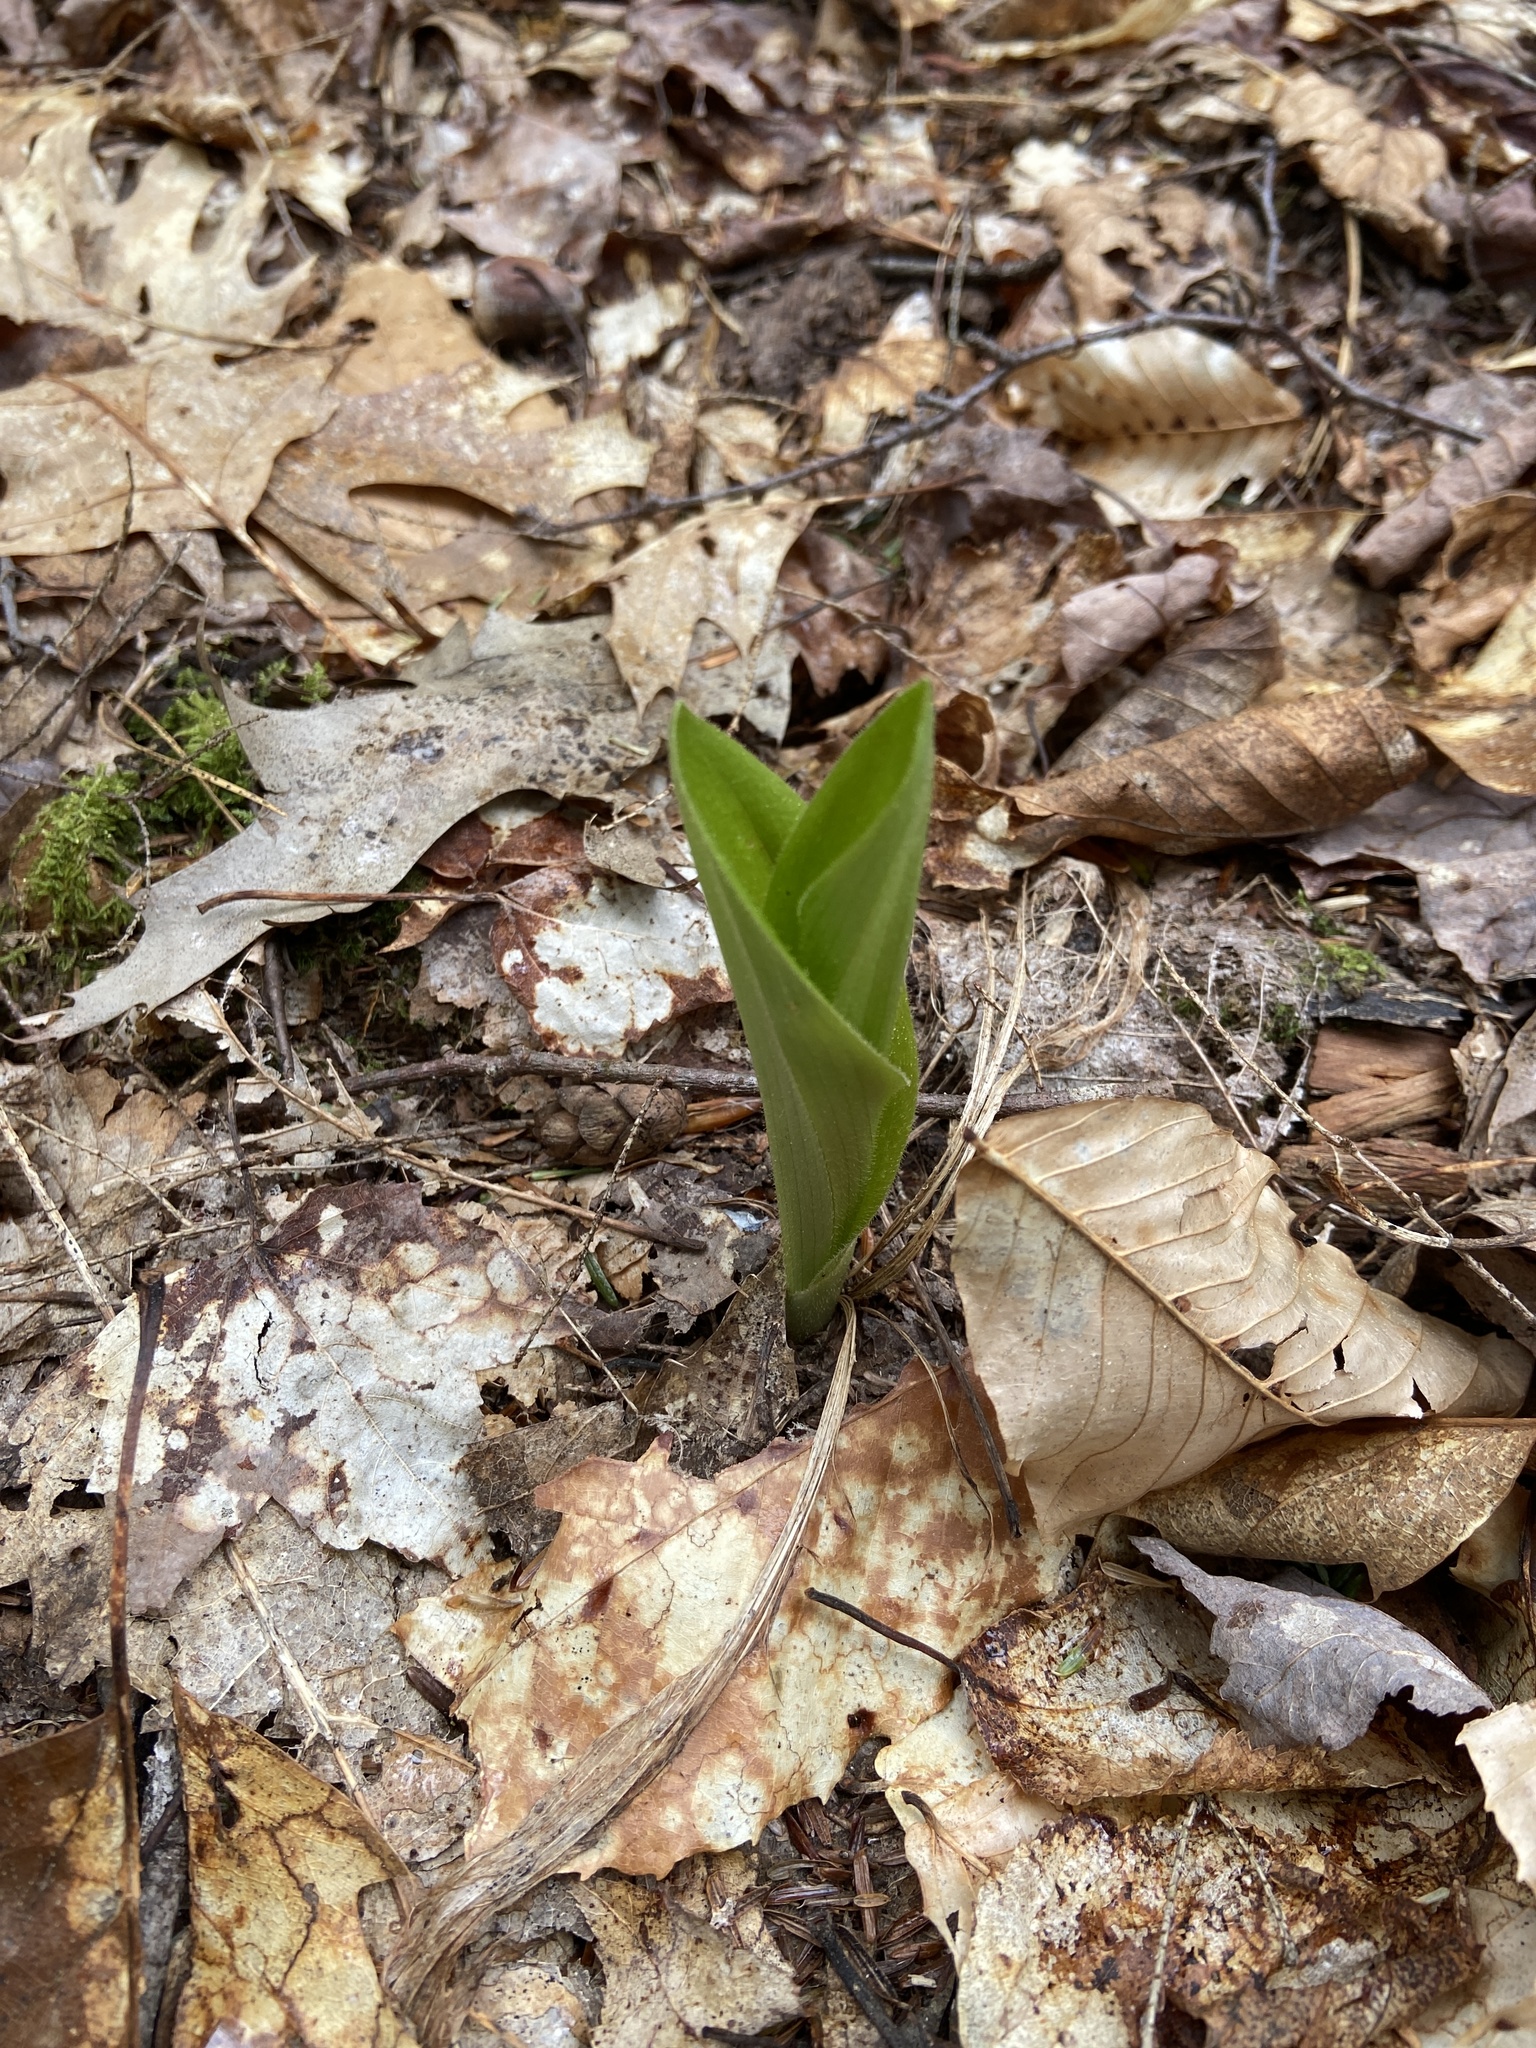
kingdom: Plantae
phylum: Tracheophyta
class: Liliopsida
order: Asparagales
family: Orchidaceae
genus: Cypripedium
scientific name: Cypripedium acaule
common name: Pink lady's-slipper
